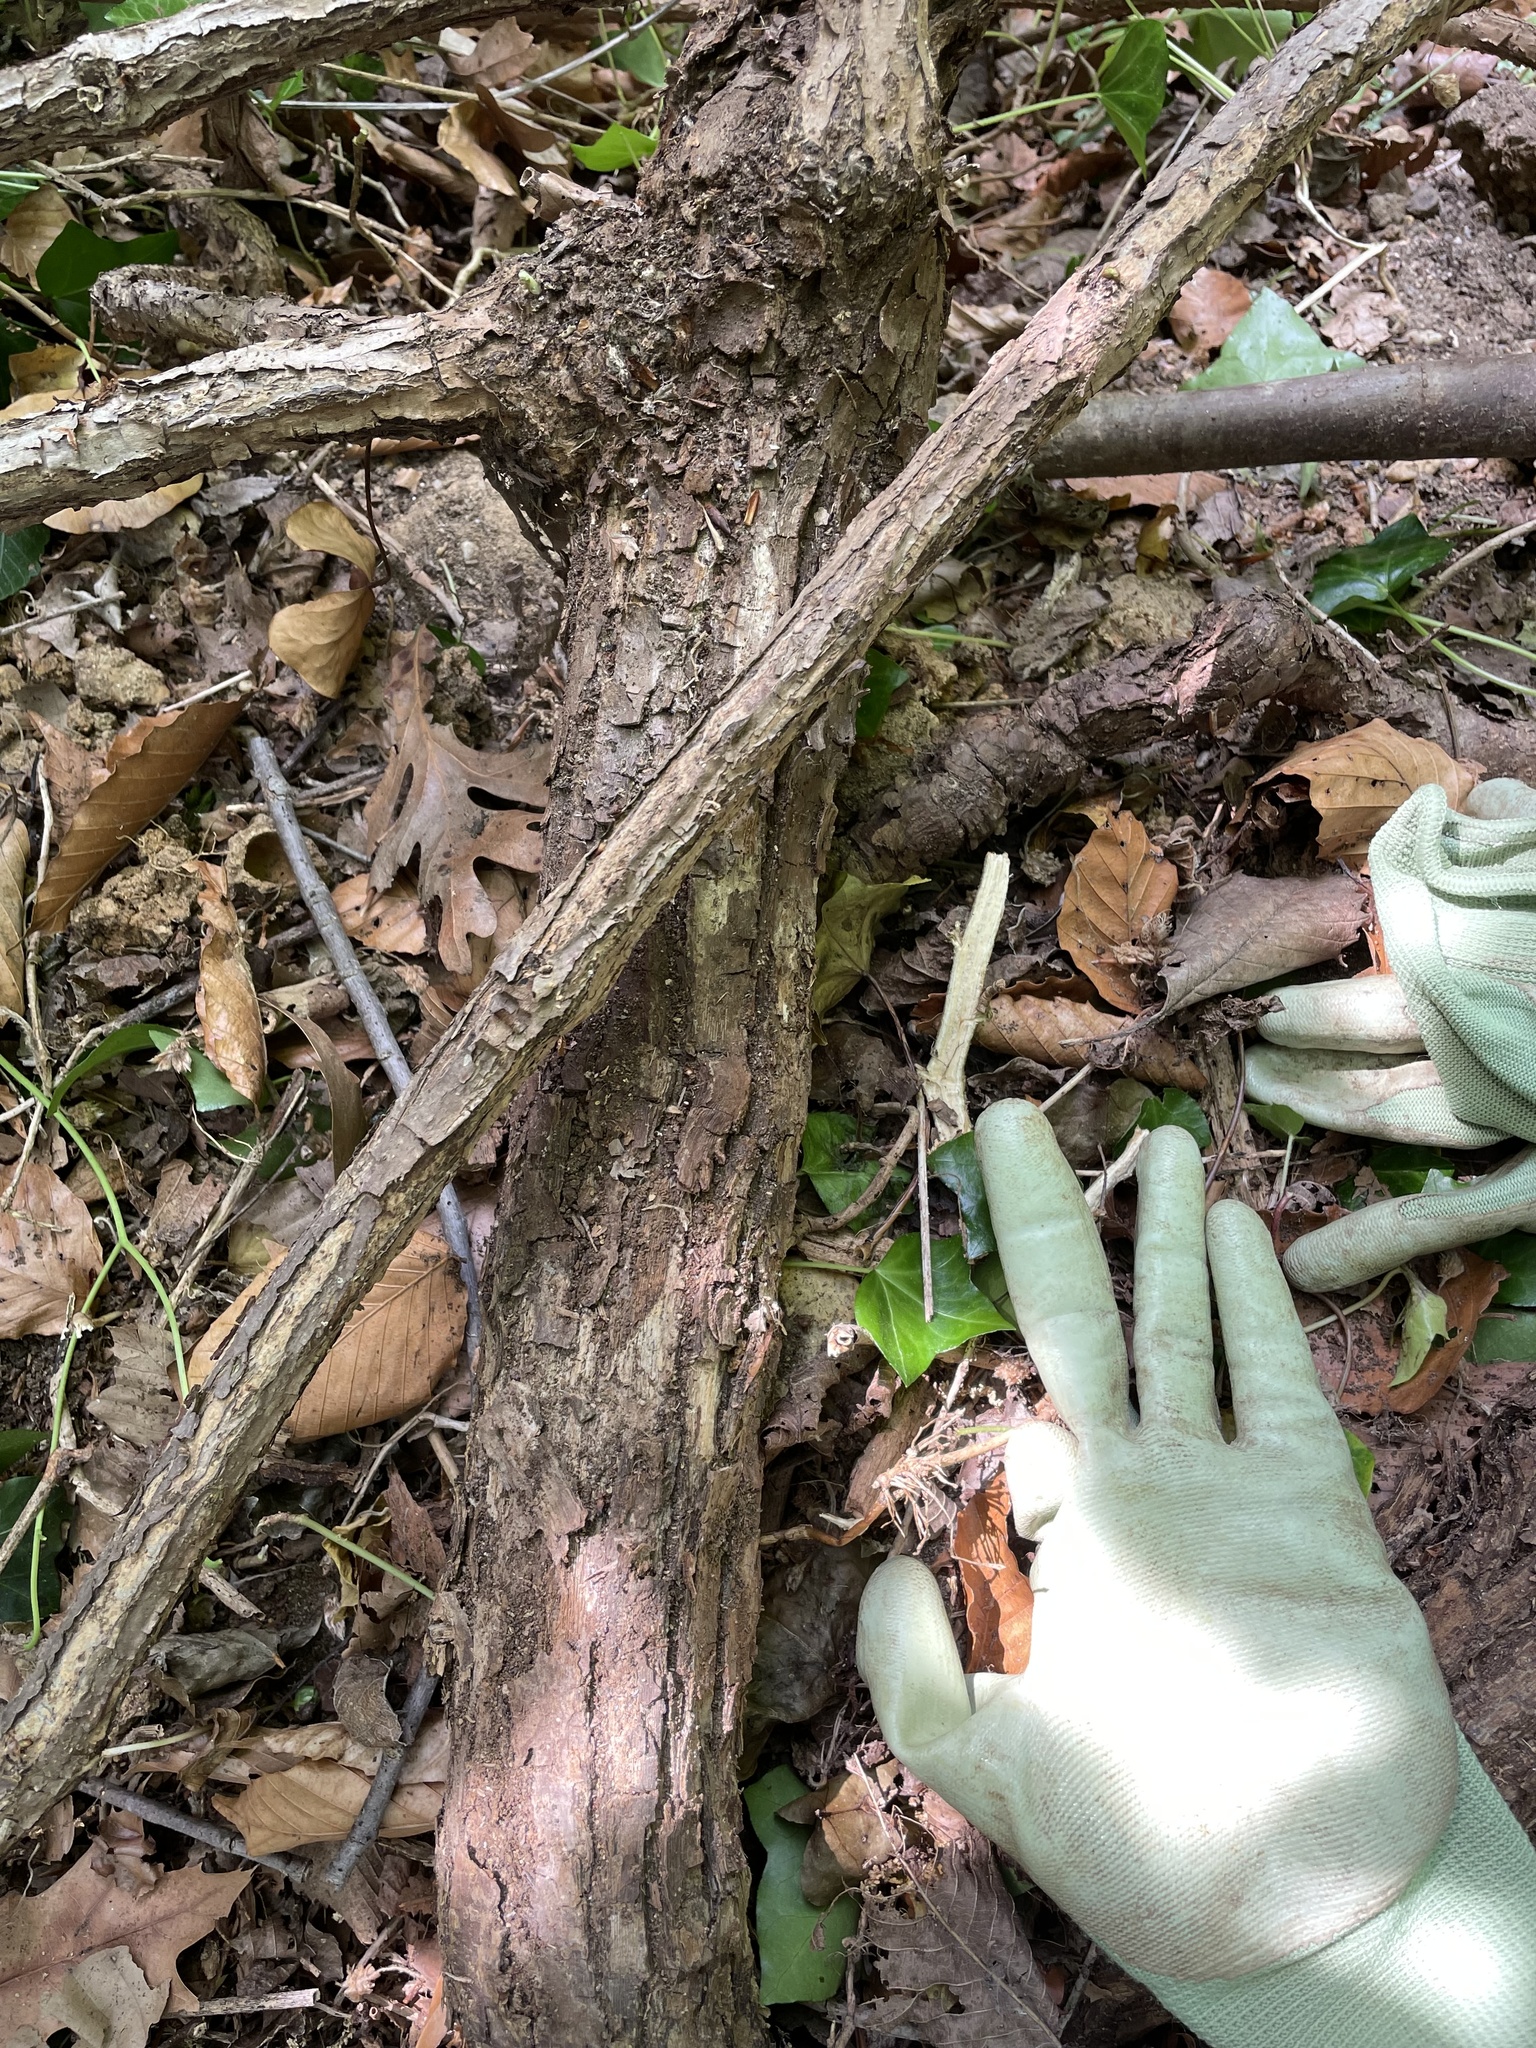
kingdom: Plantae
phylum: Tracheophyta
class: Magnoliopsida
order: Vitales
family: Vitaceae
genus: Ampelopsis
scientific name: Ampelopsis glandulosa
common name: Amur peppervine
